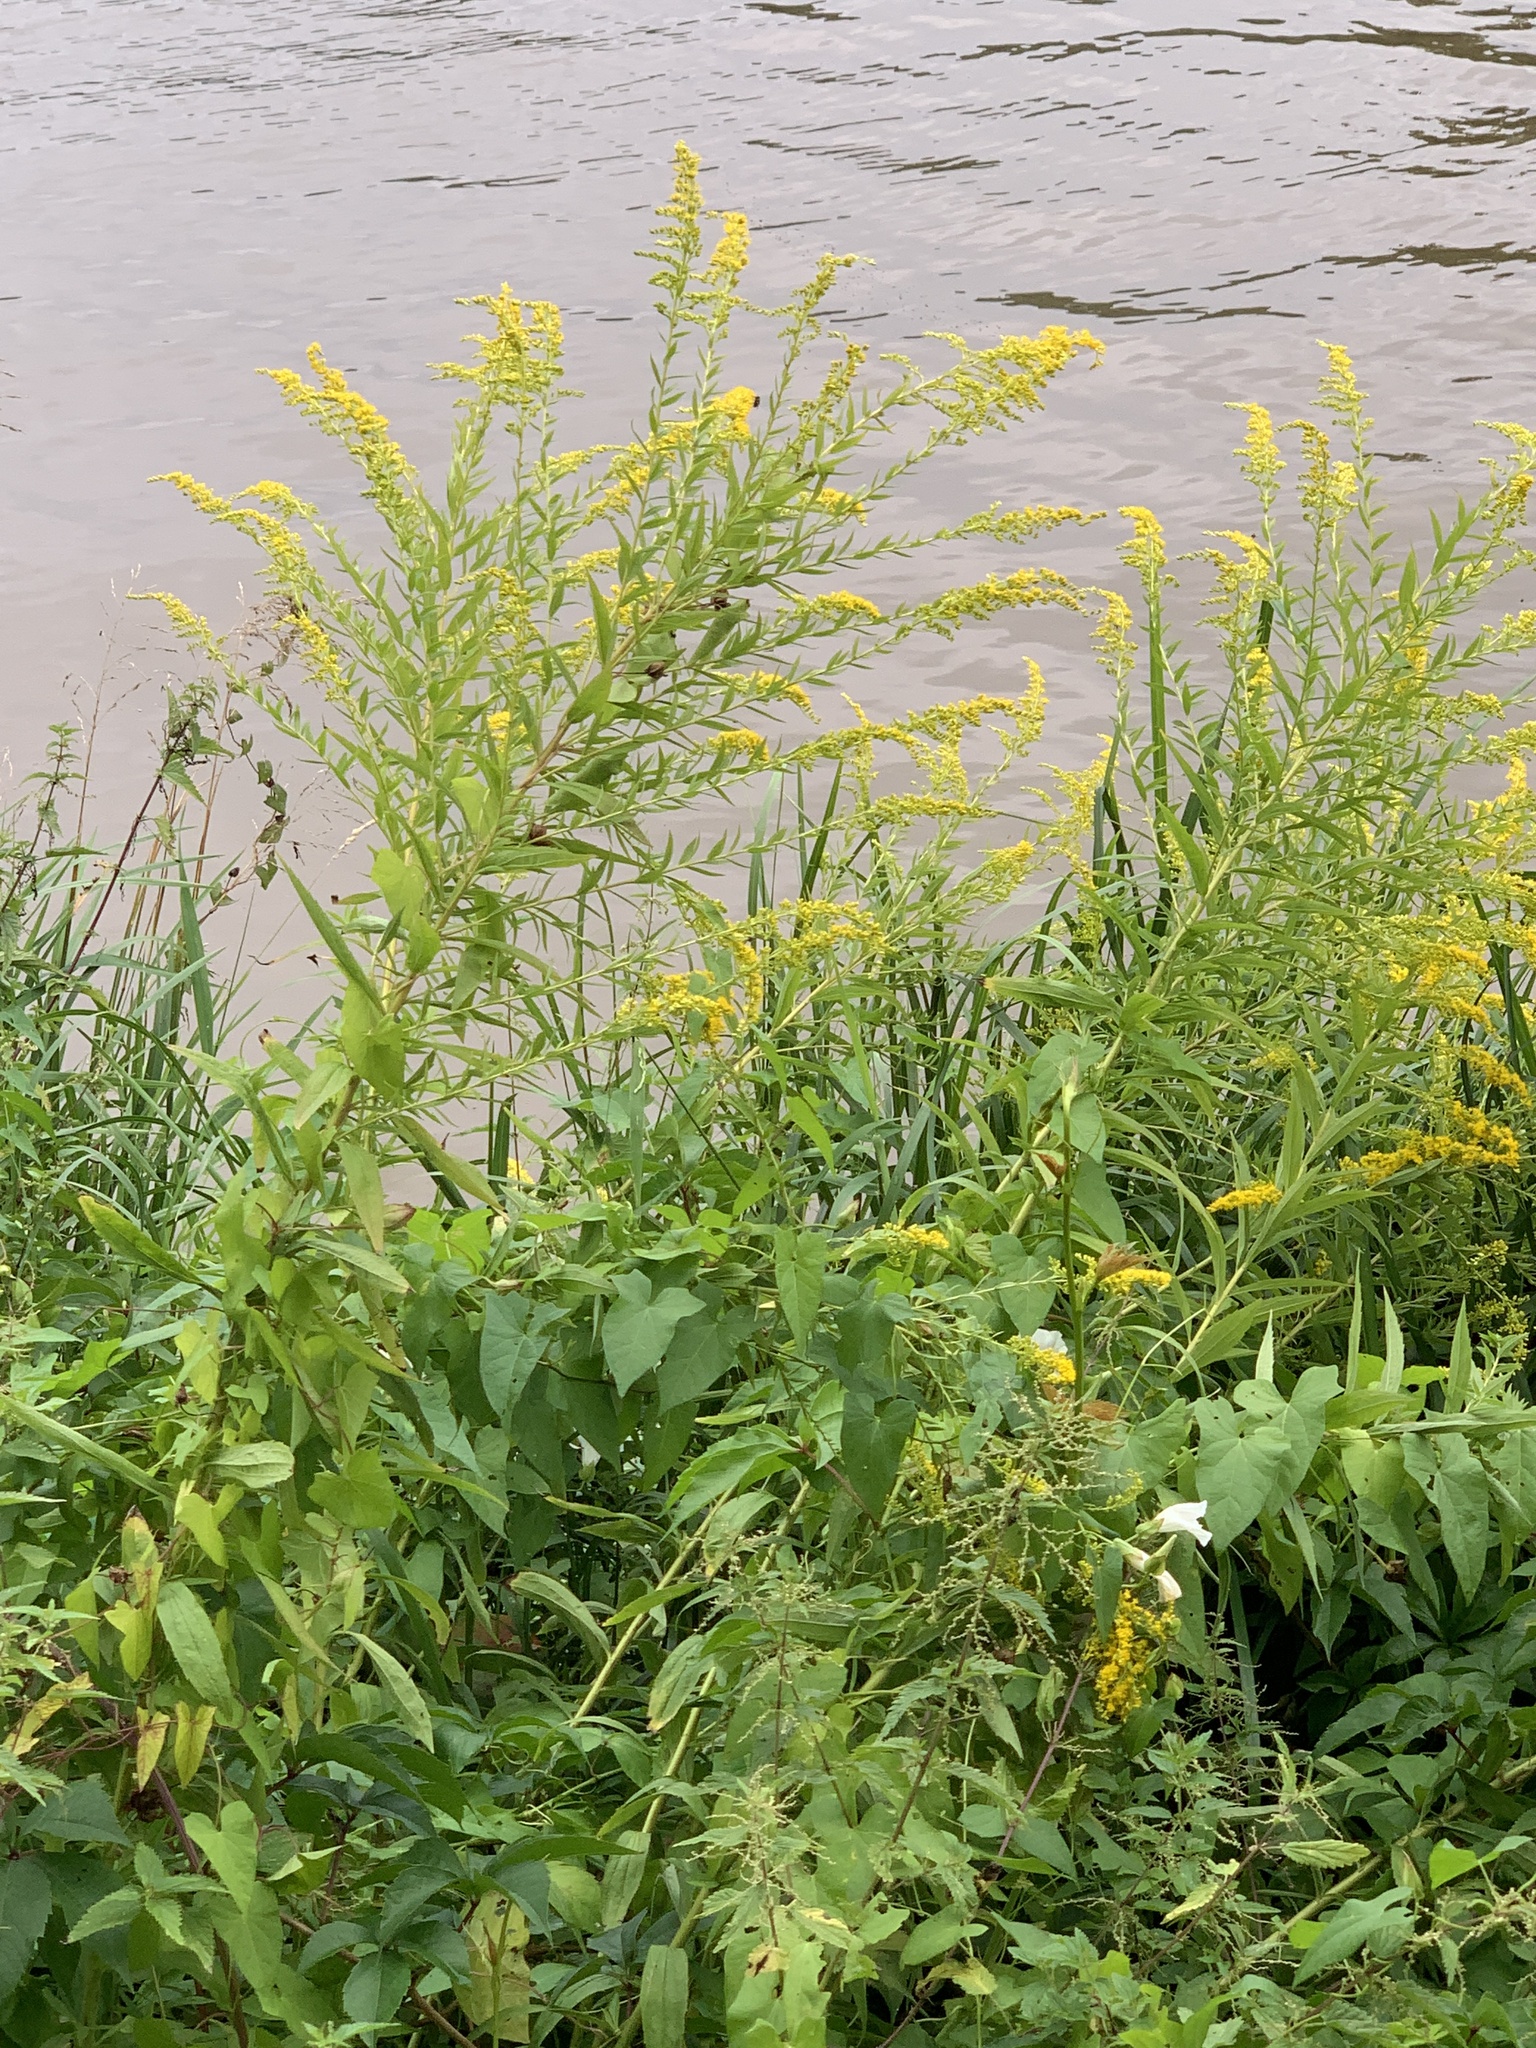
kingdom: Plantae
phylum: Tracheophyta
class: Magnoliopsida
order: Asterales
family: Asteraceae
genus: Solidago
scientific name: Solidago canadensis
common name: Canada goldenrod
